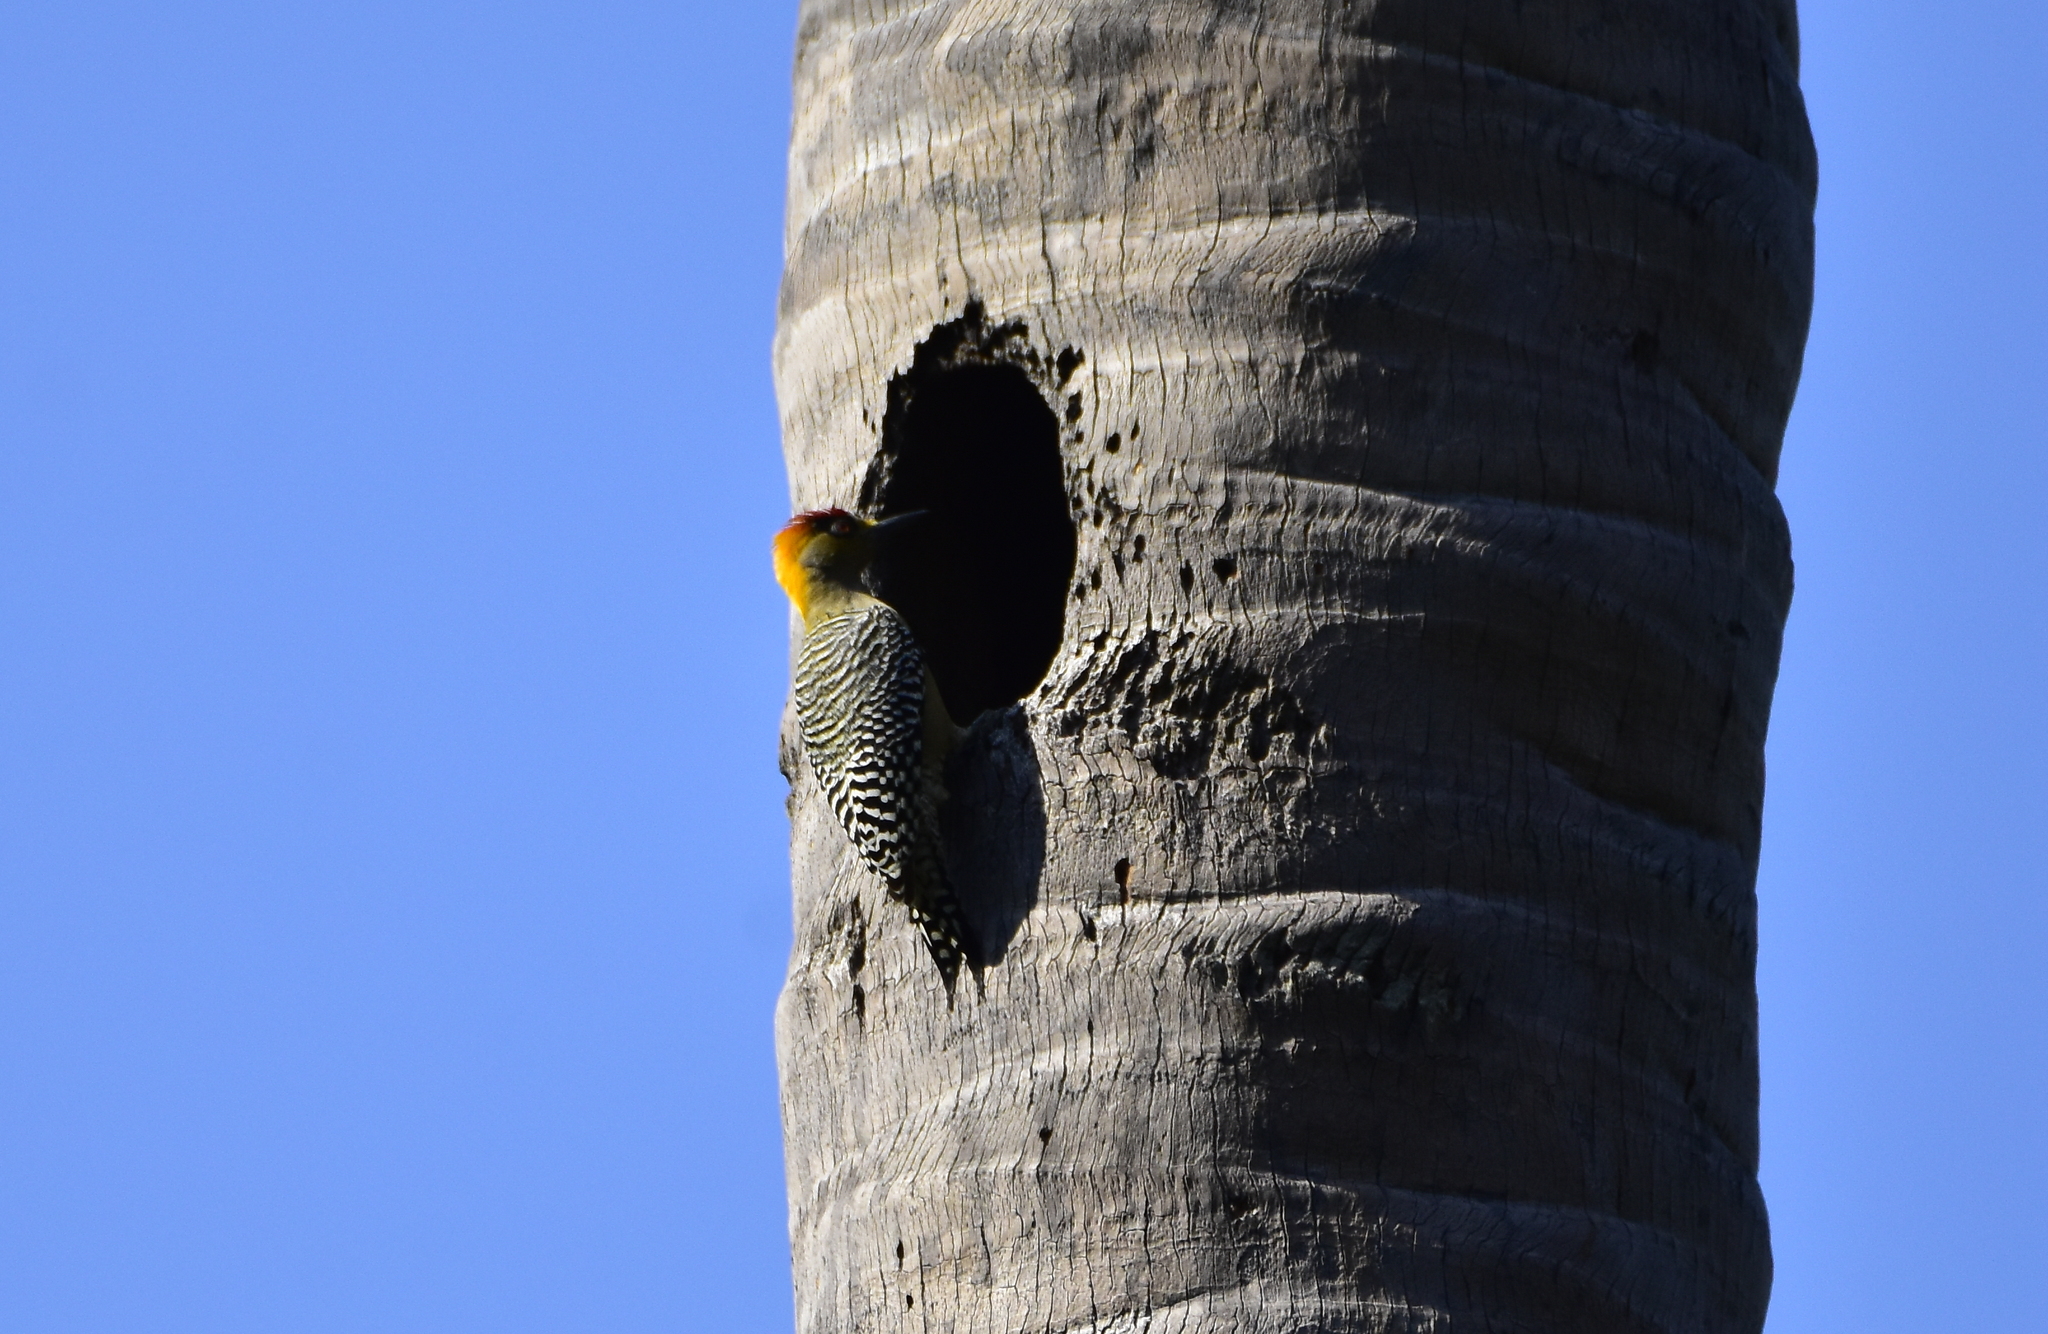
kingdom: Animalia
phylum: Chordata
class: Aves
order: Piciformes
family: Picidae
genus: Melanerpes
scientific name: Melanerpes chrysogenys
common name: Golden-cheeked woodpecker
